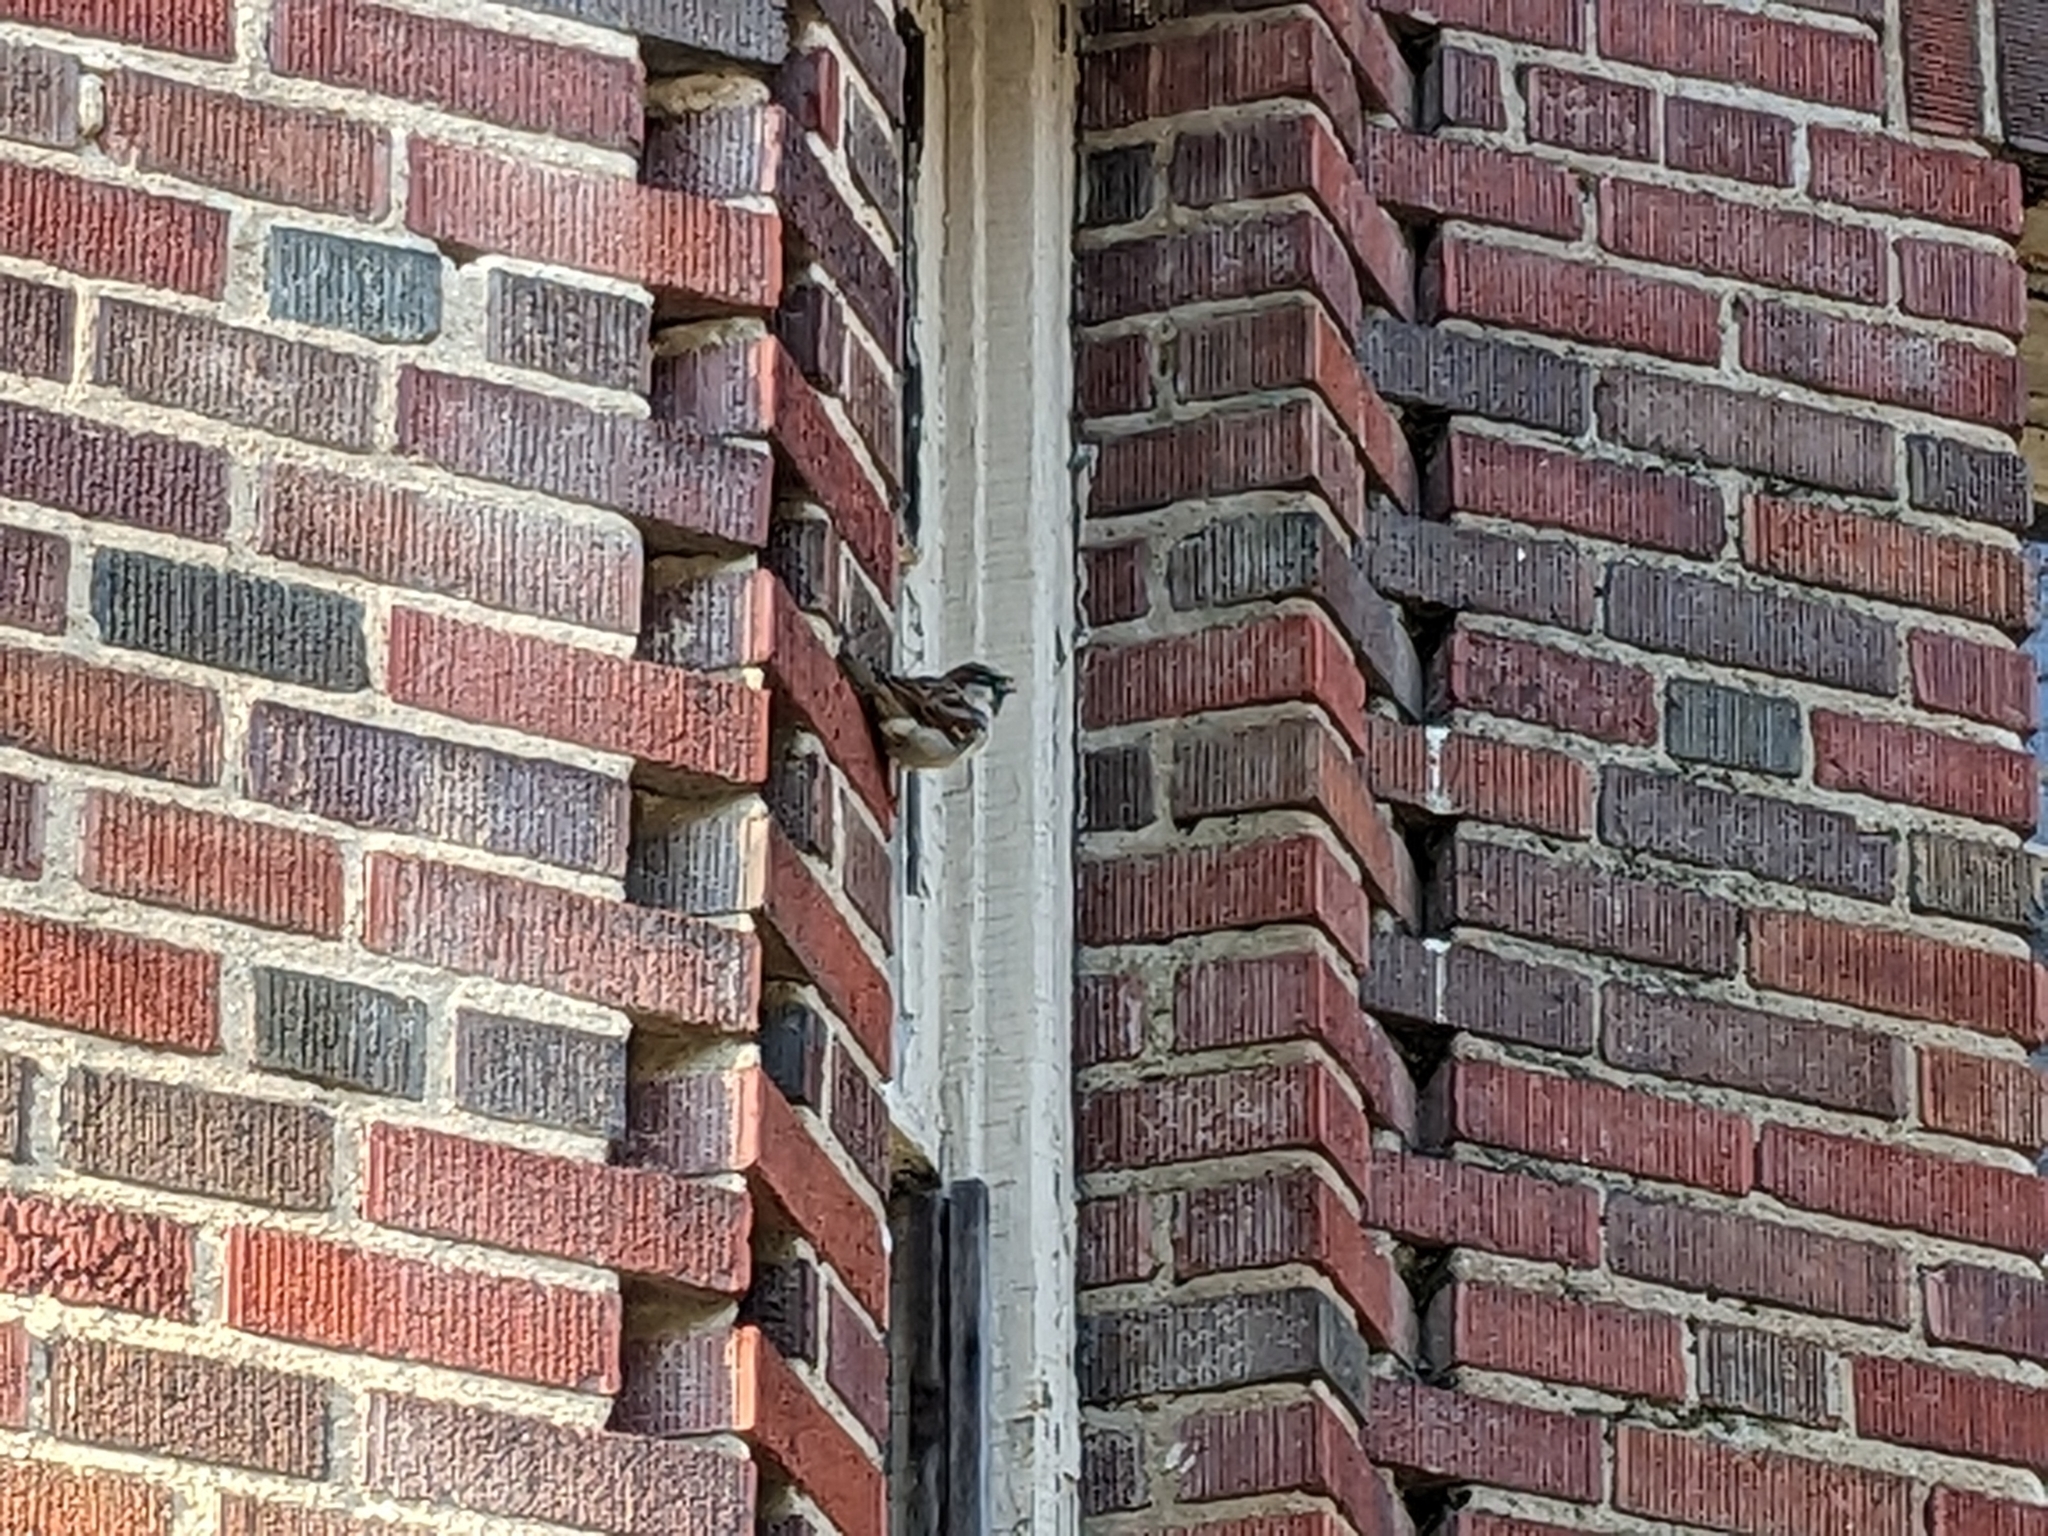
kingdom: Animalia
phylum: Chordata
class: Aves
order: Passeriformes
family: Passeridae
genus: Passer
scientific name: Passer domesticus
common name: House sparrow
